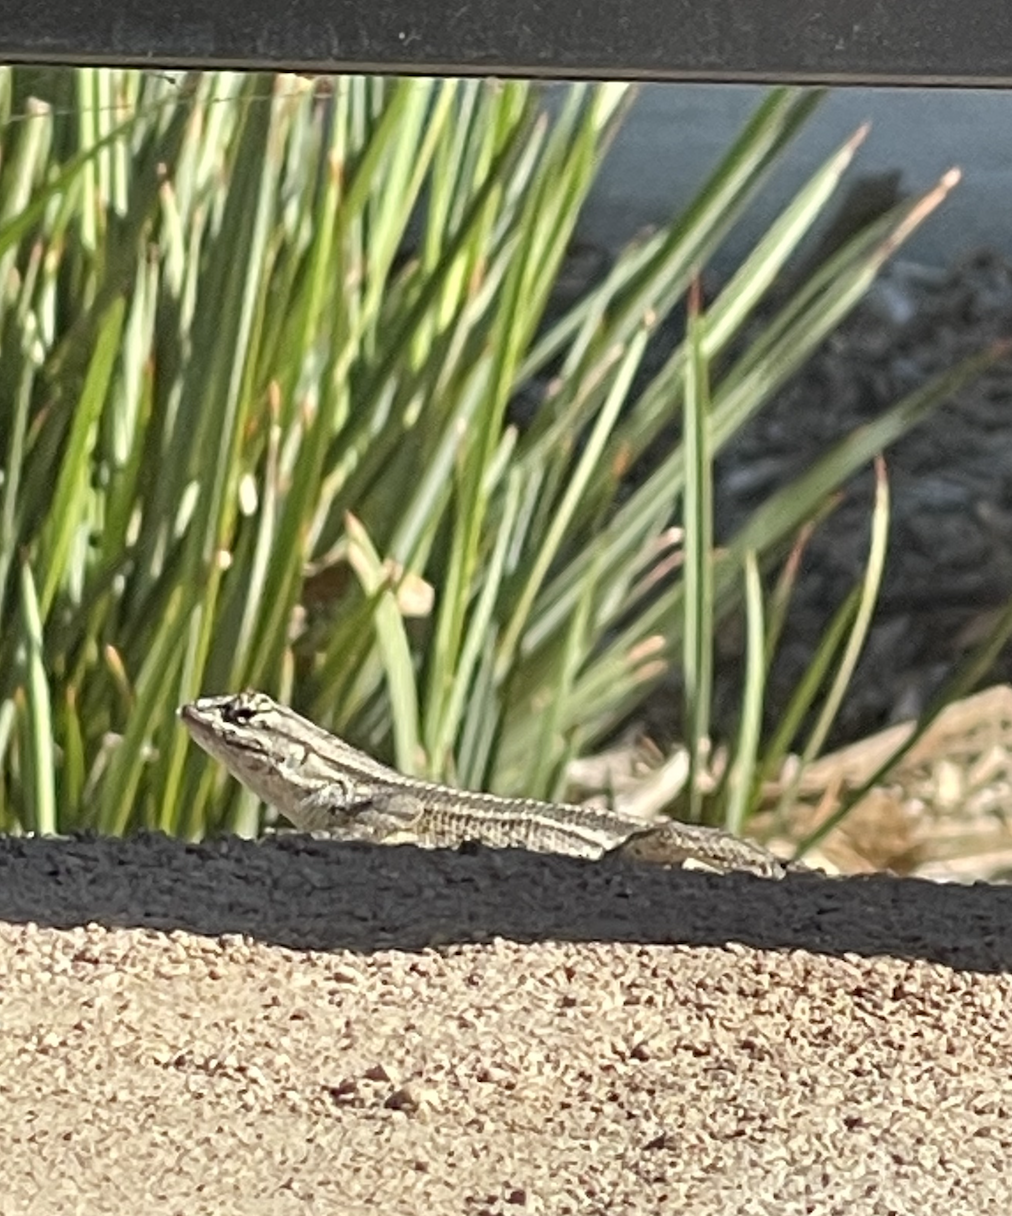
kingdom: Animalia
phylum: Chordata
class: Squamata
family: Phrynosomatidae
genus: Sceloporus
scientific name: Sceloporus occidentalis
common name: Western fence lizard
